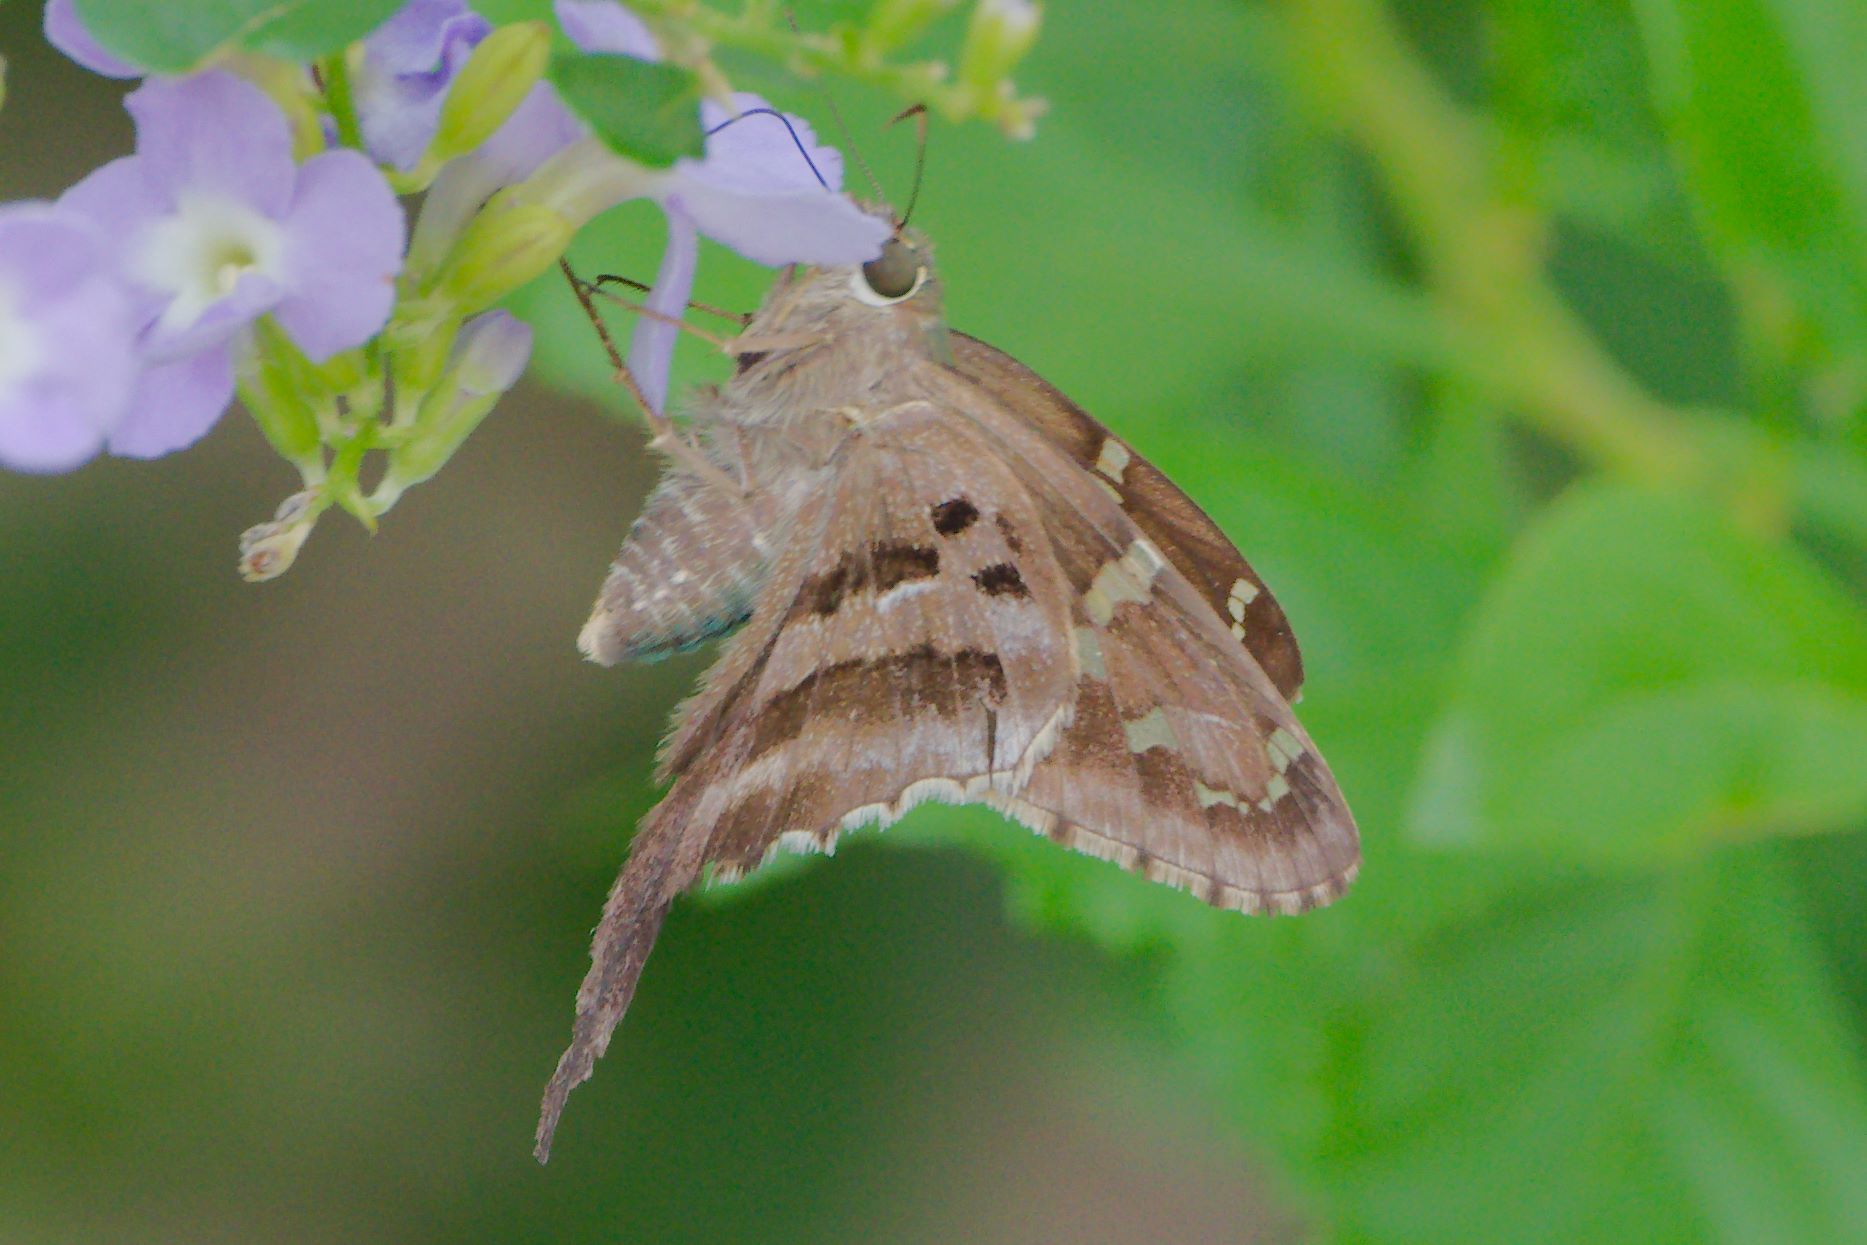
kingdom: Animalia
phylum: Arthropoda
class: Insecta
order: Lepidoptera
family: Hesperiidae
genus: Urbanus
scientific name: Urbanus proteus
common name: Long-tailed skipper
